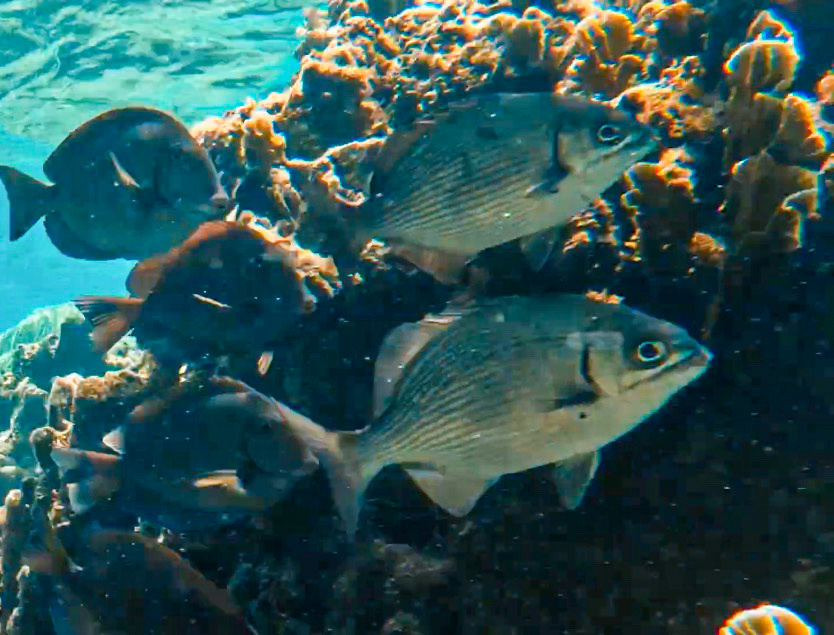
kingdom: Animalia
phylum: Chordata
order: Perciformes
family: Kyphosidae
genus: Kyphosus
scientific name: Kyphosus sectatrix
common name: Bermuda chub
